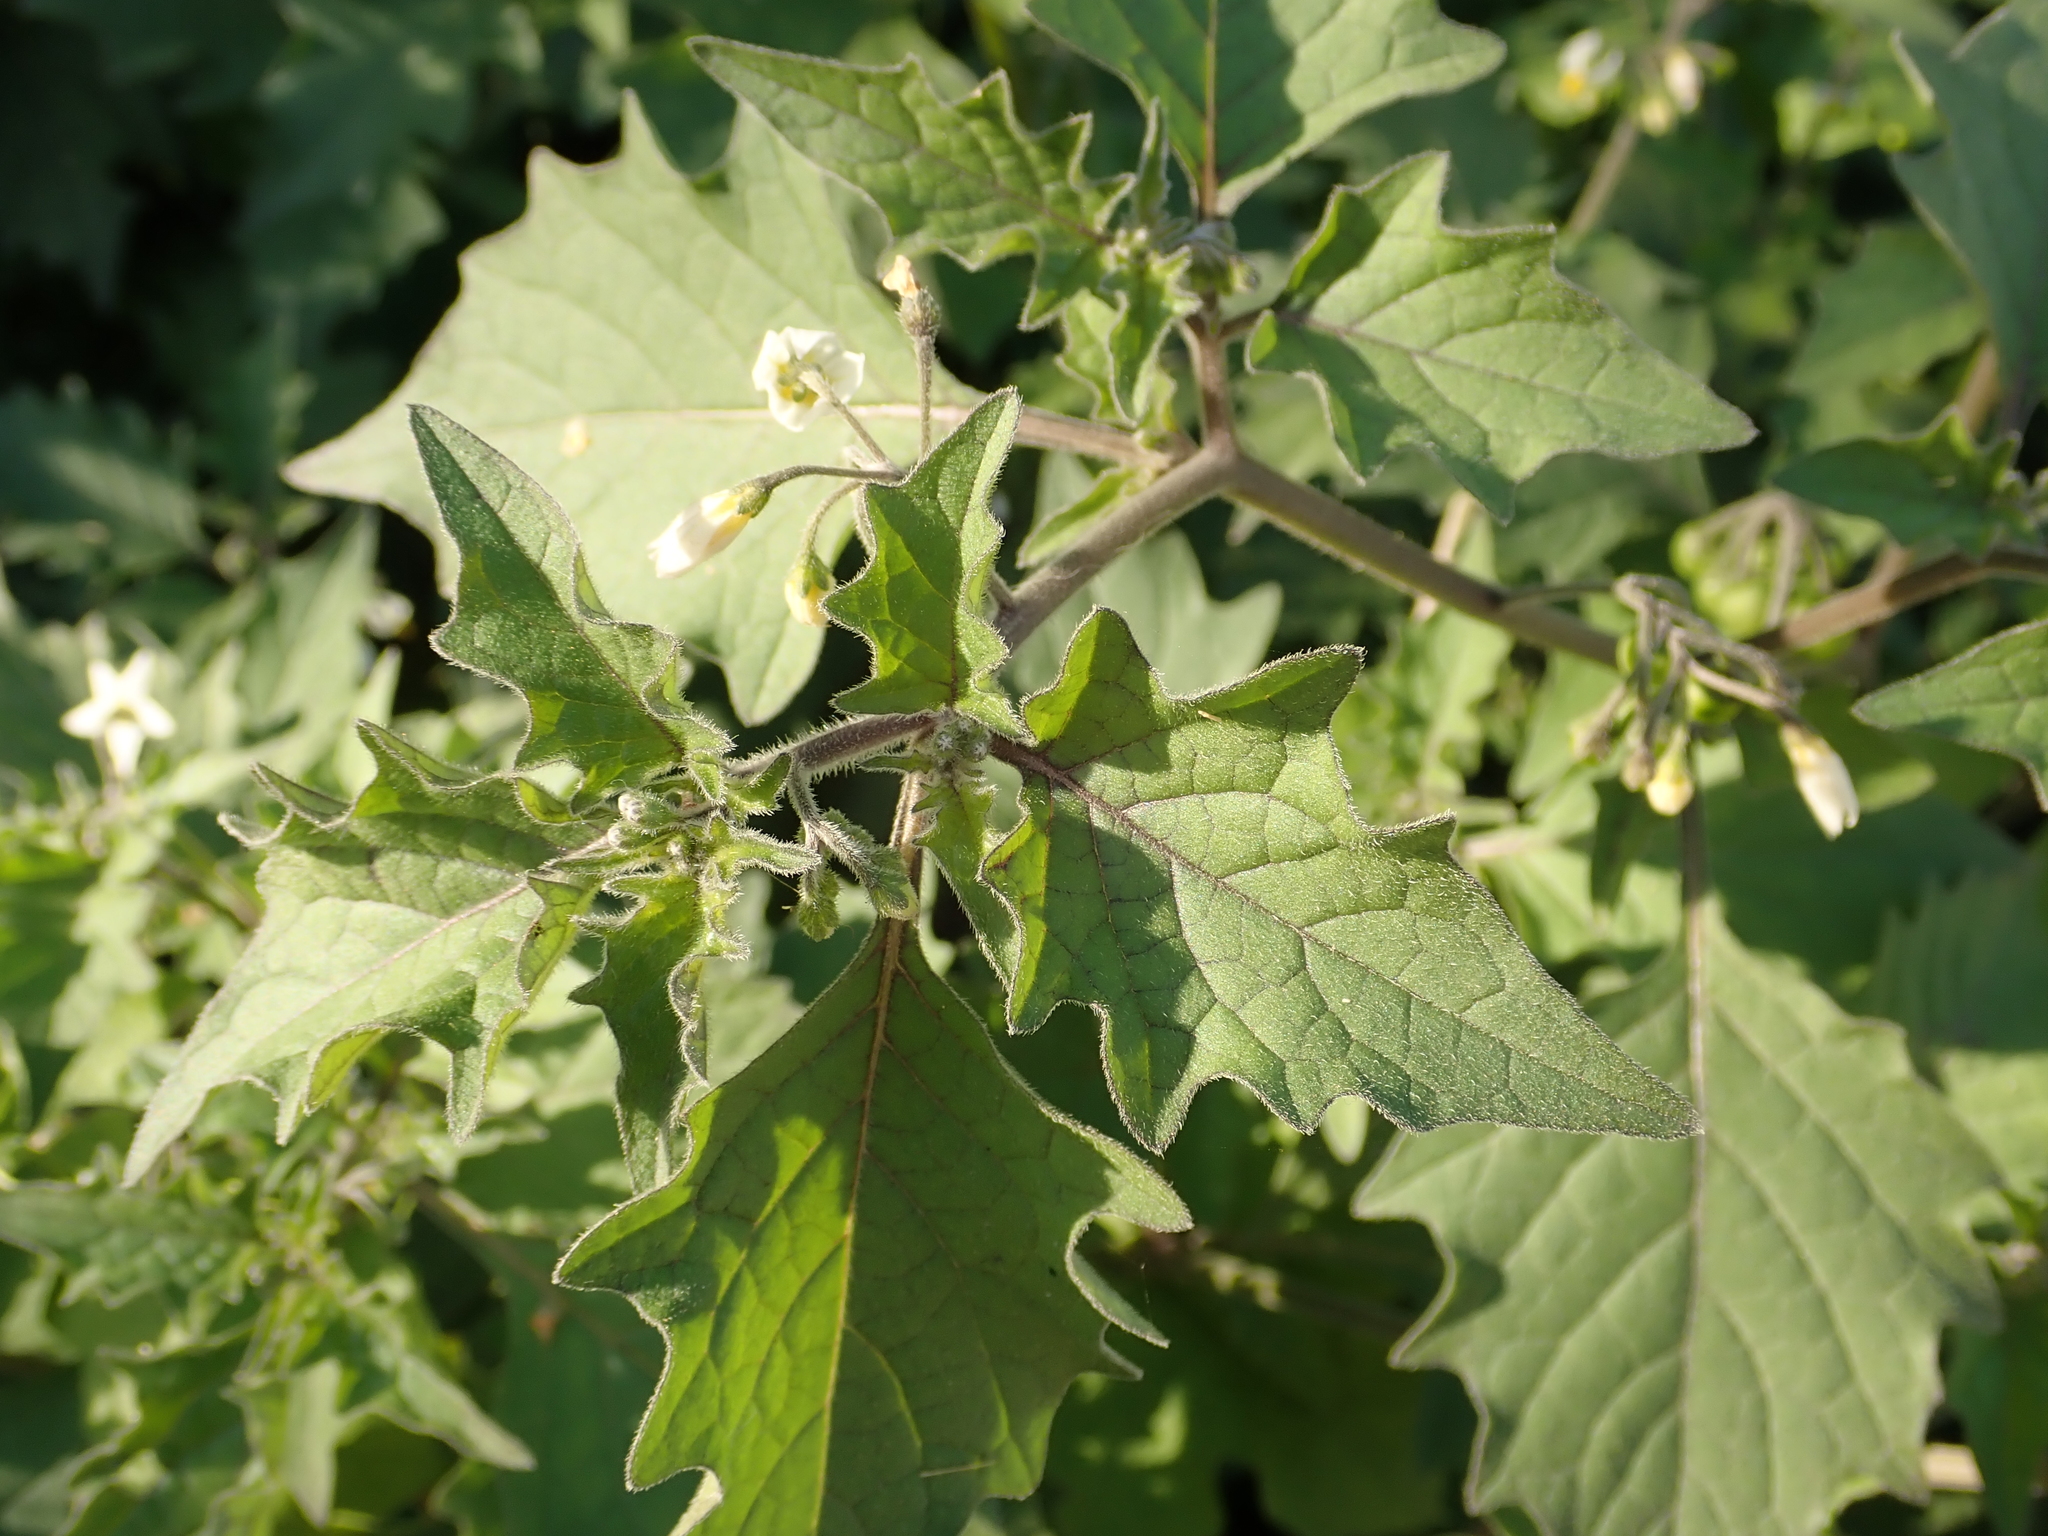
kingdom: Plantae
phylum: Tracheophyta
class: Magnoliopsida
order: Solanales
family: Solanaceae
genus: Solanum
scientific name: Solanum nigrum
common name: Black nightshade
